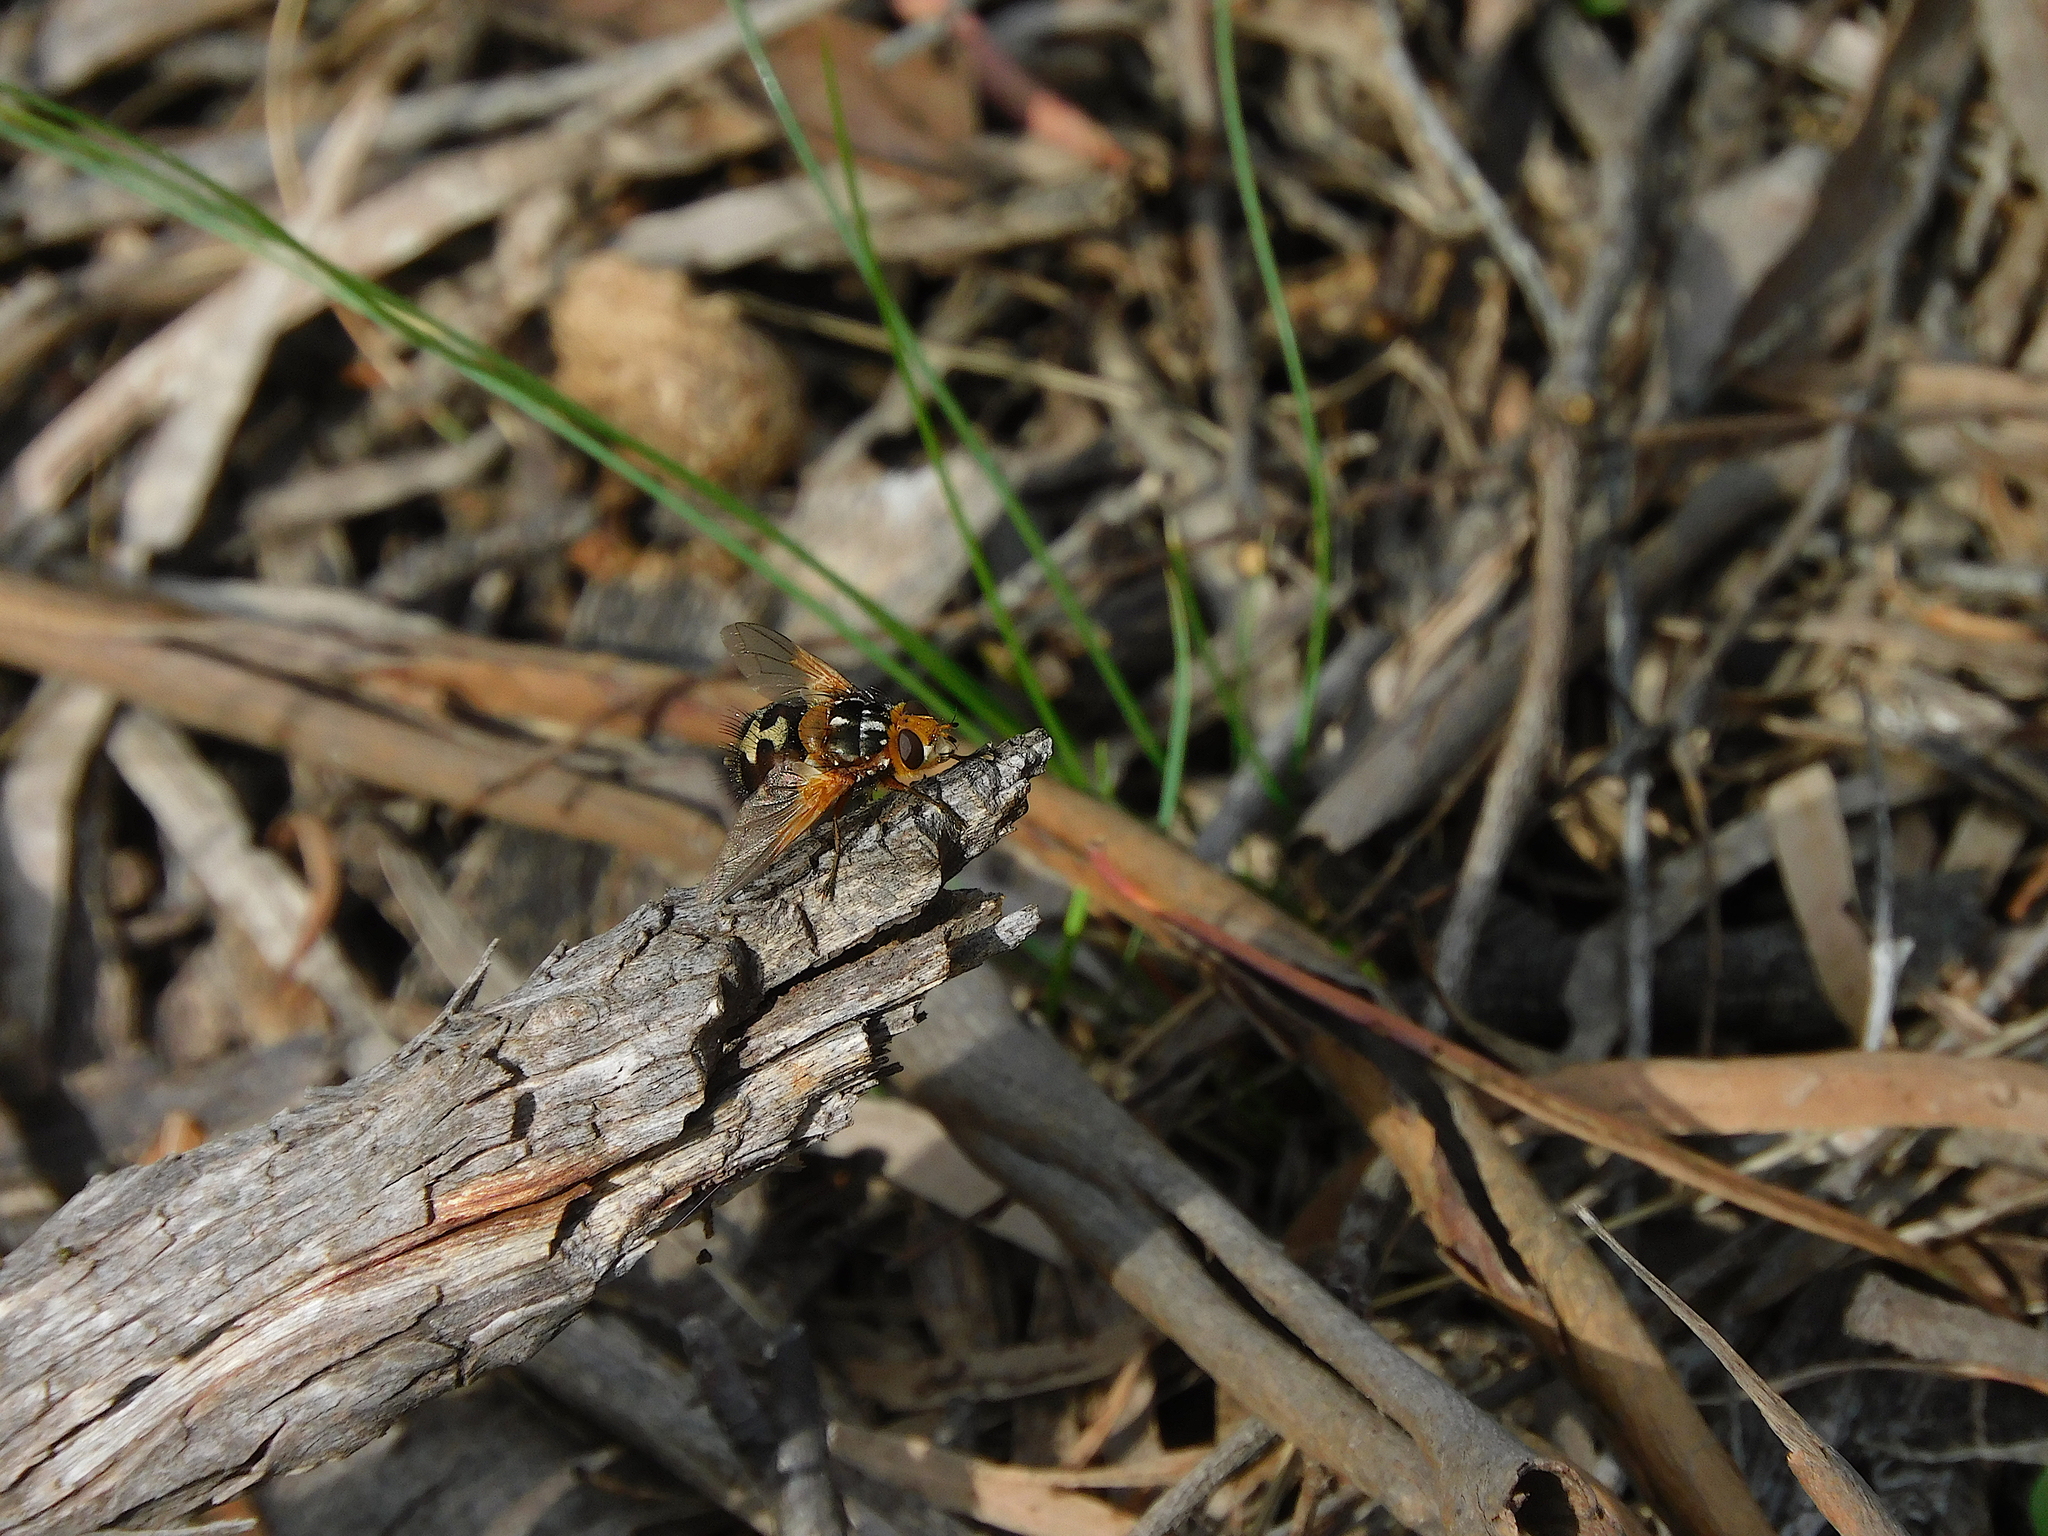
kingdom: Animalia
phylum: Arthropoda
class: Insecta
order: Diptera
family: Tachinidae
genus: Microtropesa
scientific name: Microtropesa nigricornis
